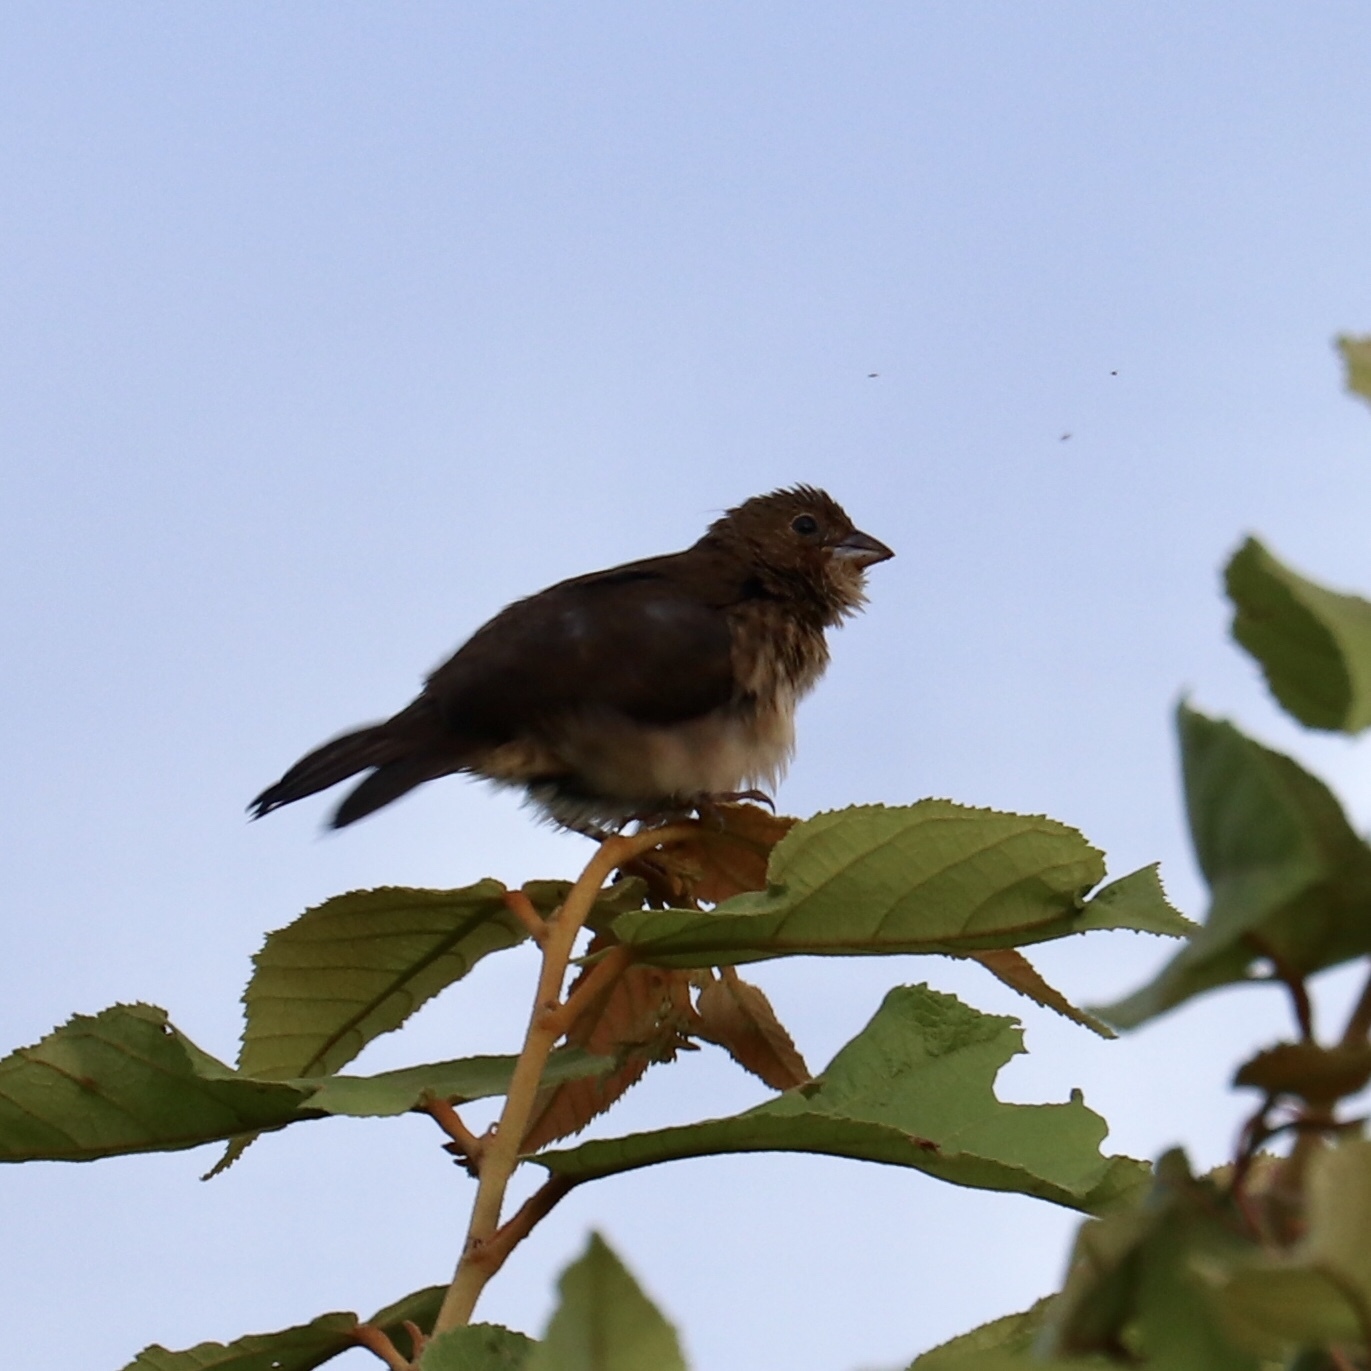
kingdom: Animalia
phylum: Chordata
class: Aves
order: Passeriformes
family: Thraupidae
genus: Volatinia
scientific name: Volatinia jacarina
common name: Blue-black grassquit
